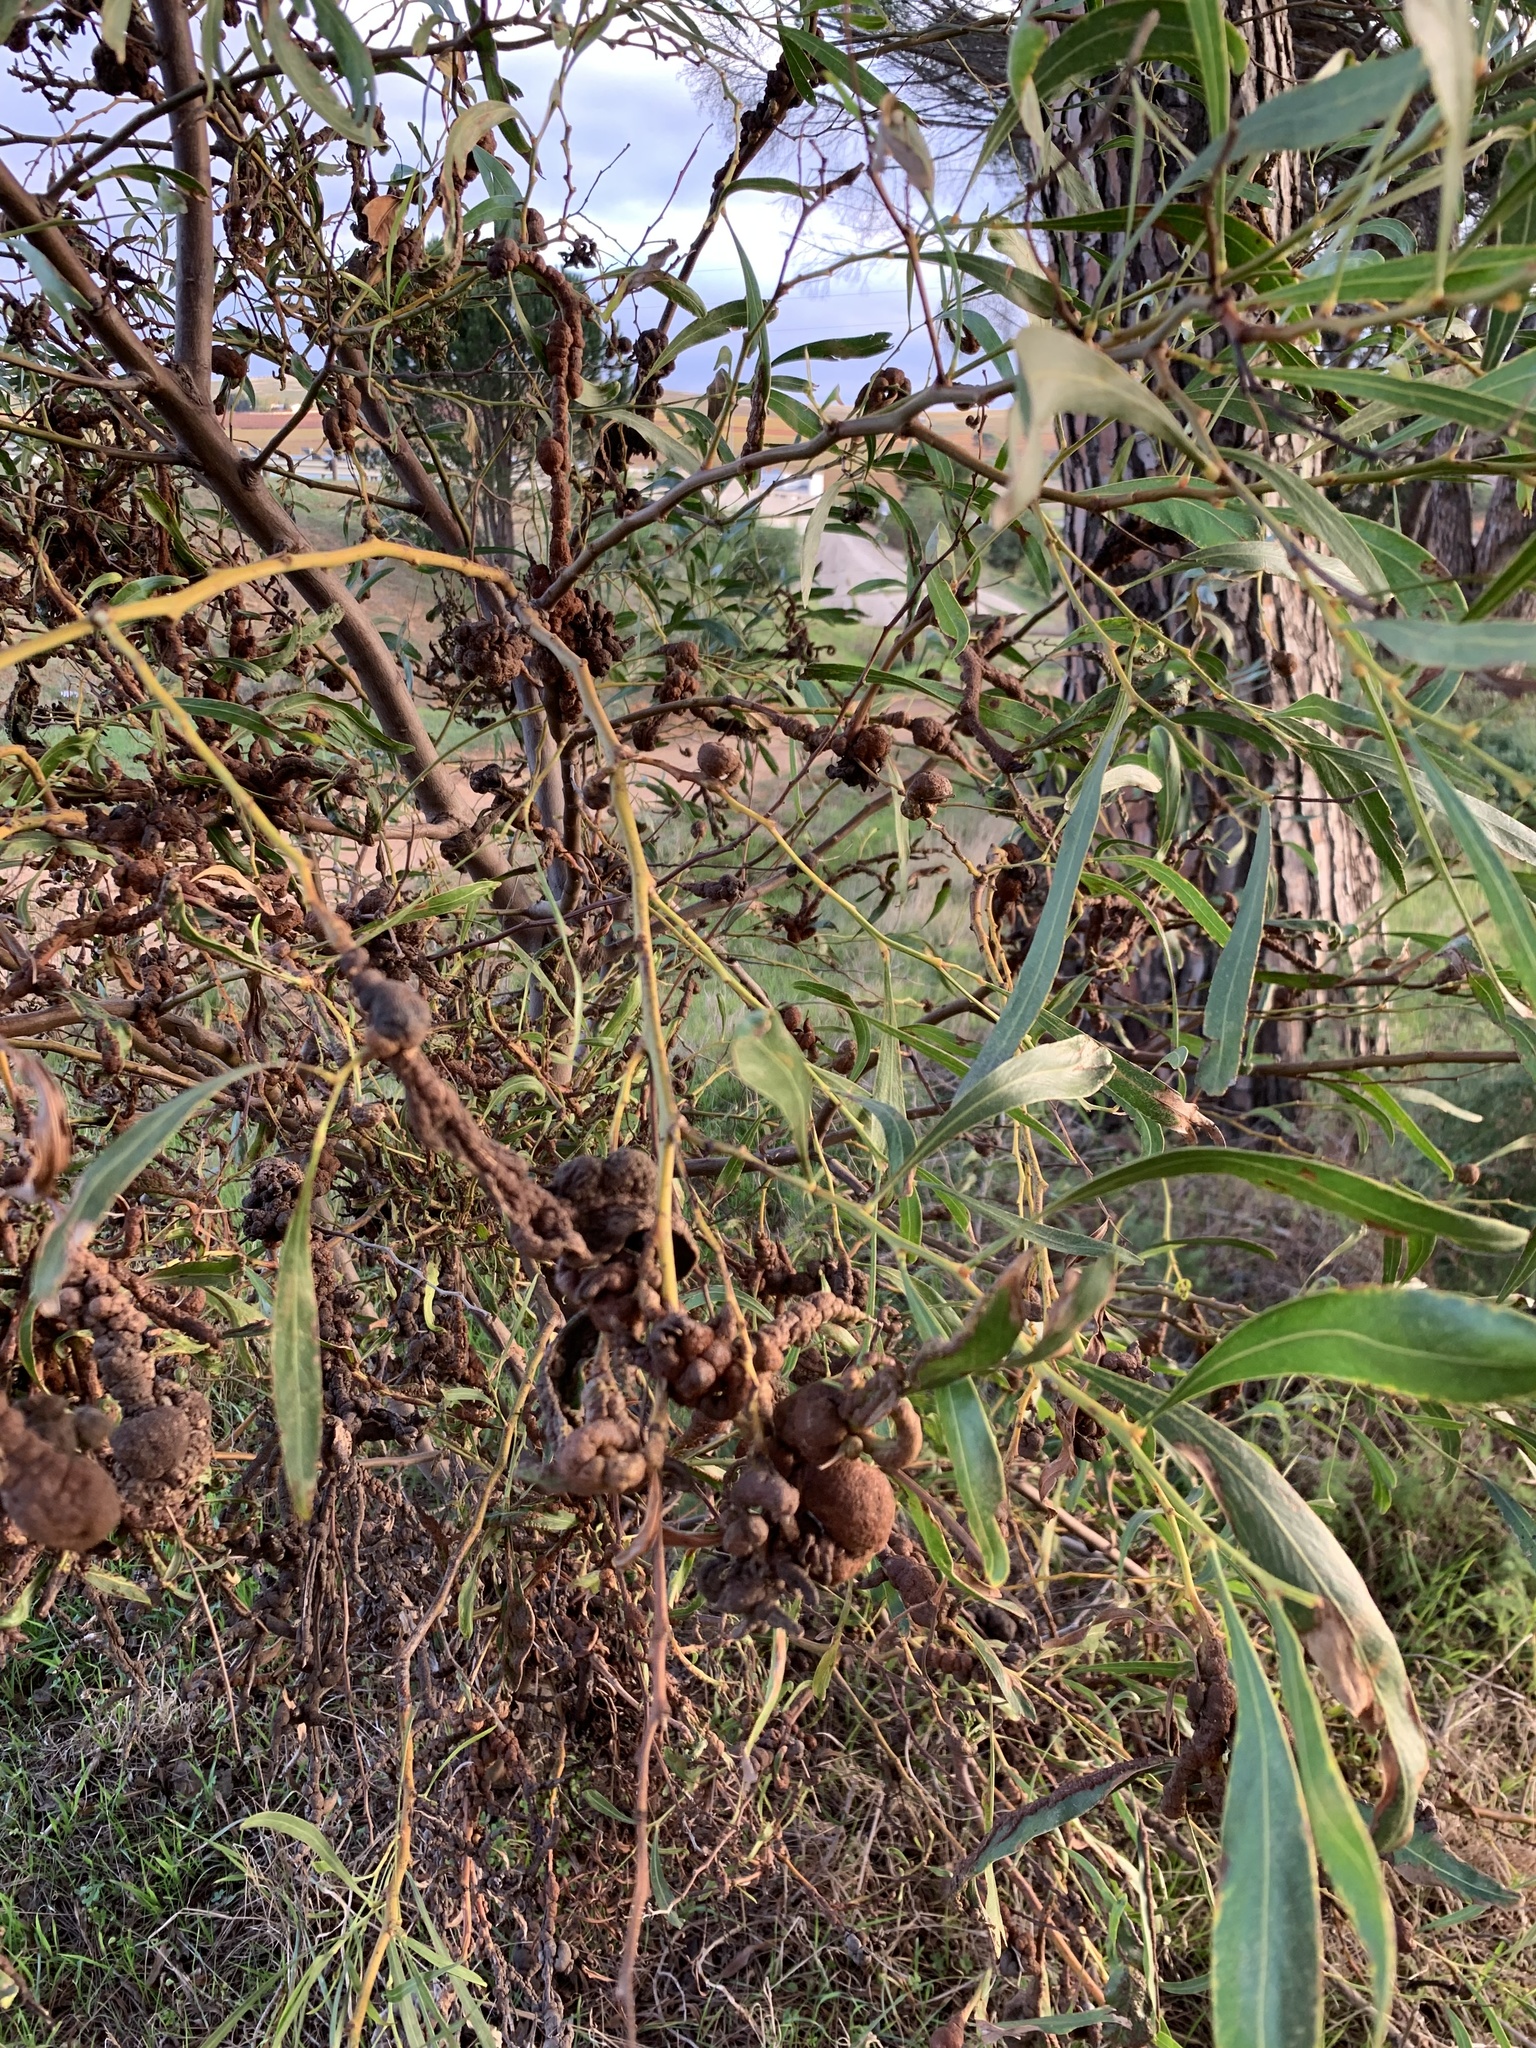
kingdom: Plantae
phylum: Tracheophyta
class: Magnoliopsida
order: Fabales
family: Fabaceae
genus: Acacia
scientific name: Acacia saligna
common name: Orange wattle
